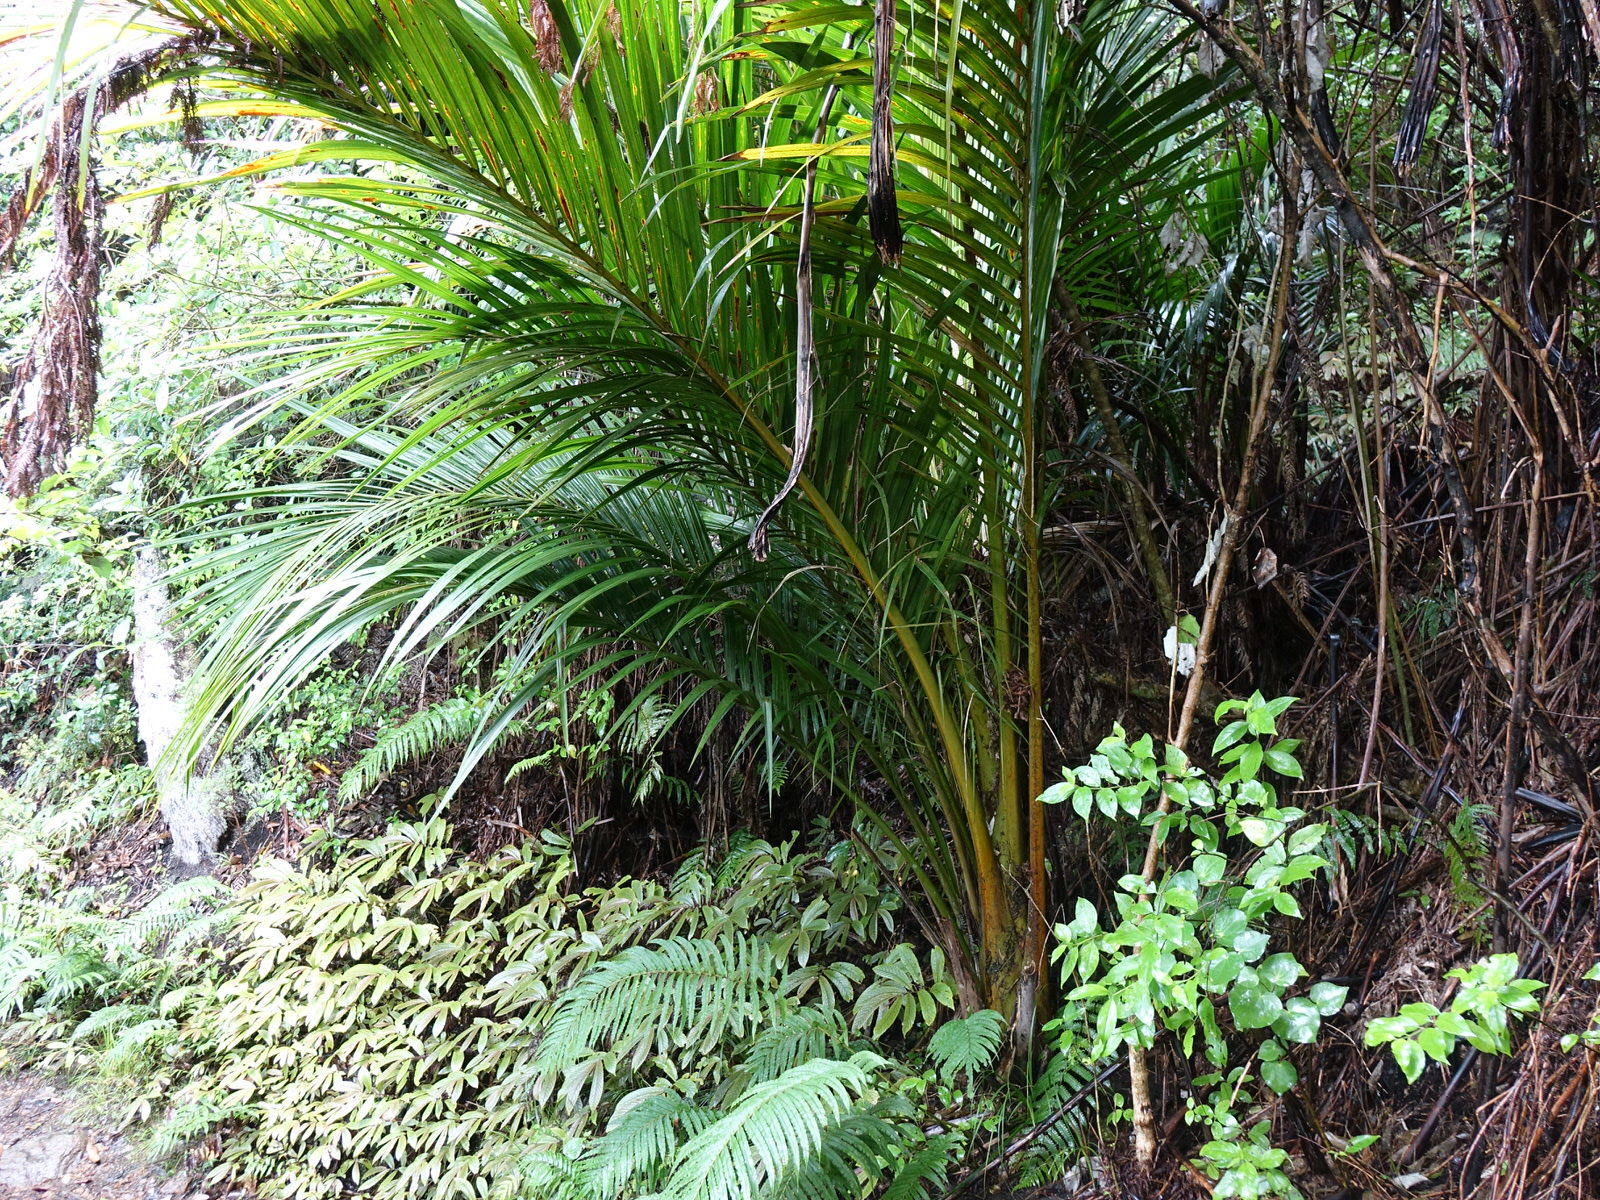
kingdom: Plantae
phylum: Tracheophyta
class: Liliopsida
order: Arecales
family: Arecaceae
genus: Rhopalostylis
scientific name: Rhopalostylis sapida
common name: Feather-duster palm
